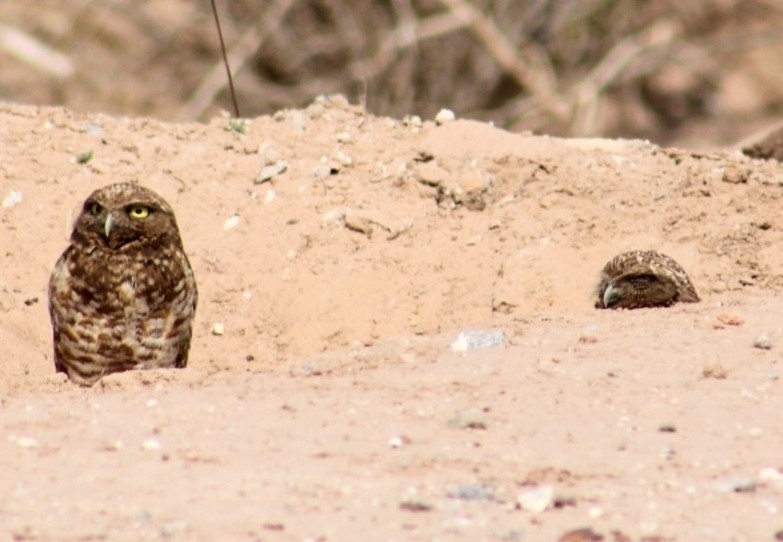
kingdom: Animalia
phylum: Chordata
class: Aves
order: Strigiformes
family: Strigidae
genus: Athene
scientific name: Athene cunicularia
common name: Burrowing owl
